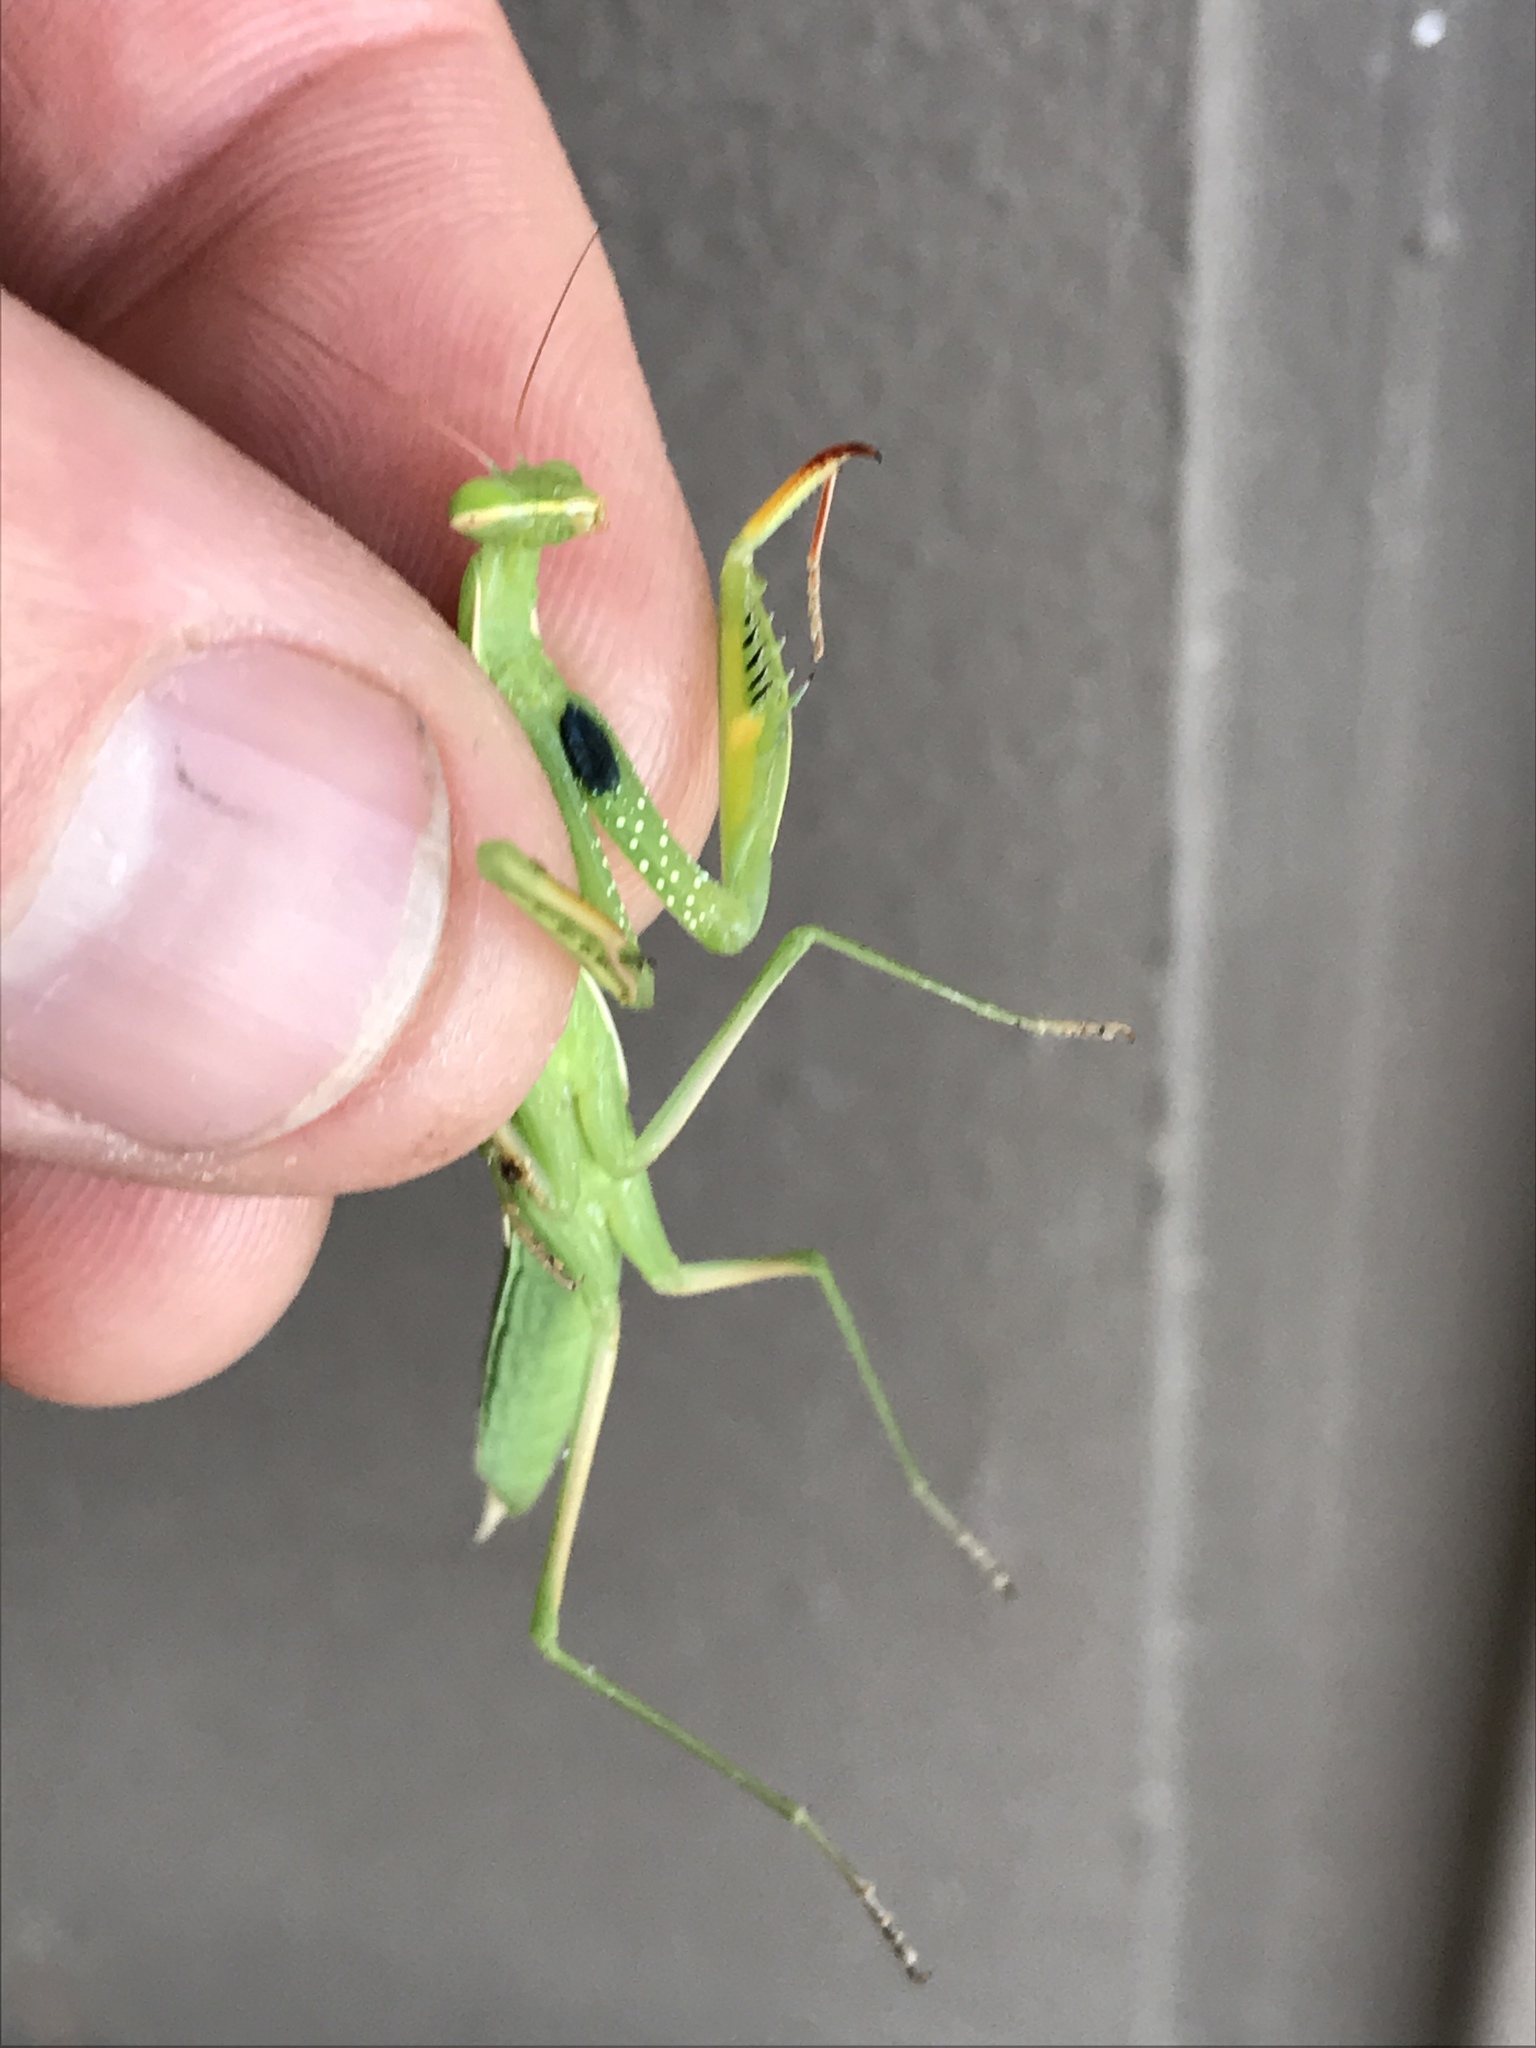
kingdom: Animalia
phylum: Arthropoda
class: Insecta
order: Mantodea
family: Mantidae
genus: Mantis
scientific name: Mantis religiosa
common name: Praying mantis
